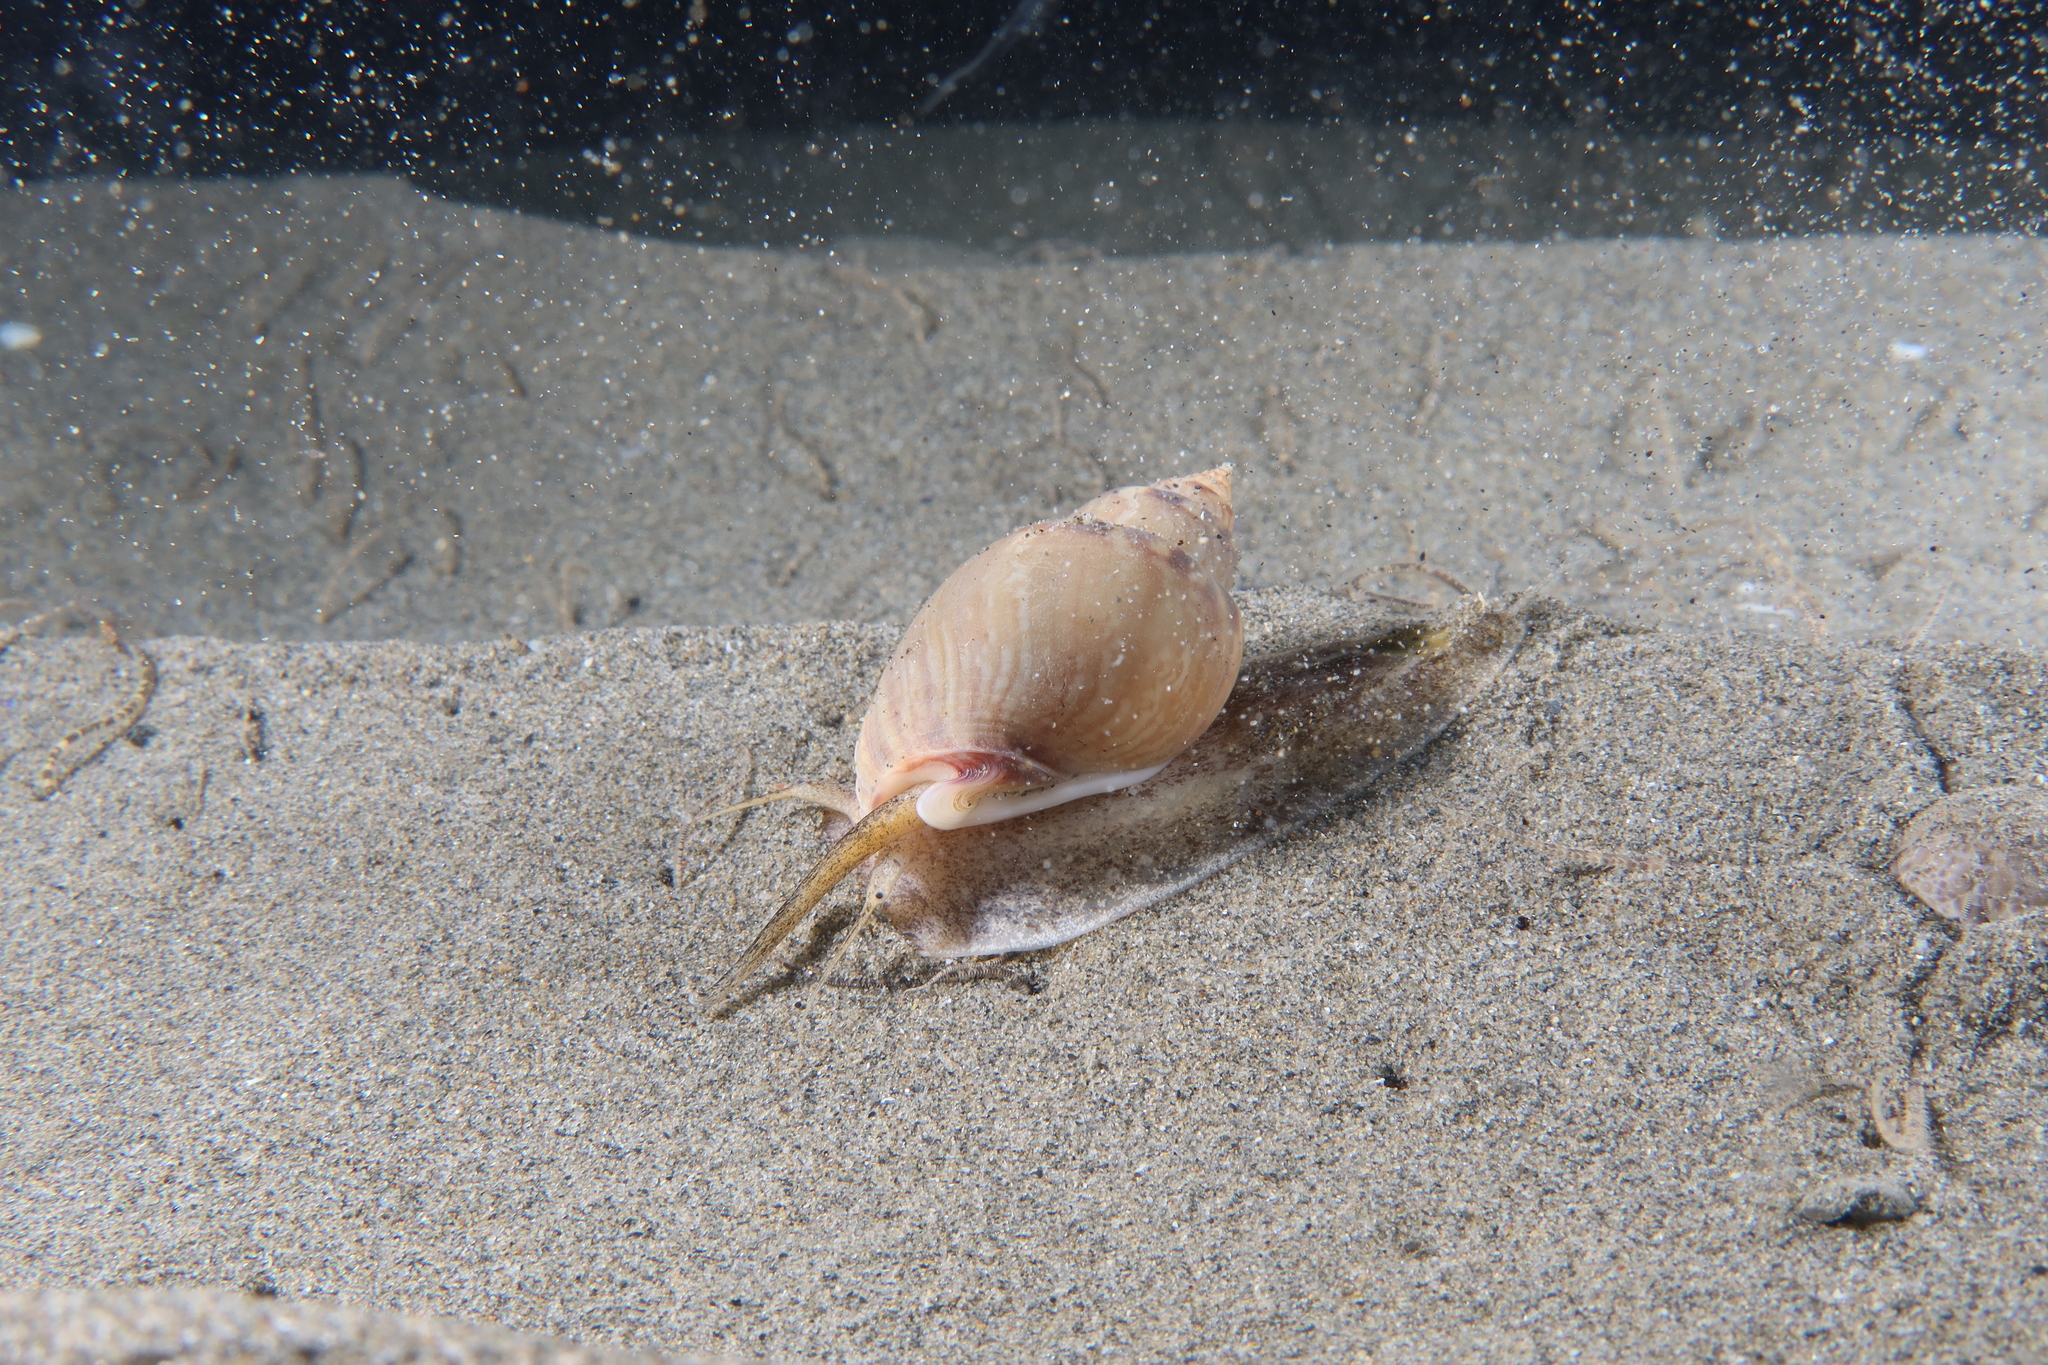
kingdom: Animalia
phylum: Mollusca
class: Gastropoda
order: Neogastropoda
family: Nassariidae
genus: Tritia
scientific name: Tritia mutabilis
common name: Mutable nassa
